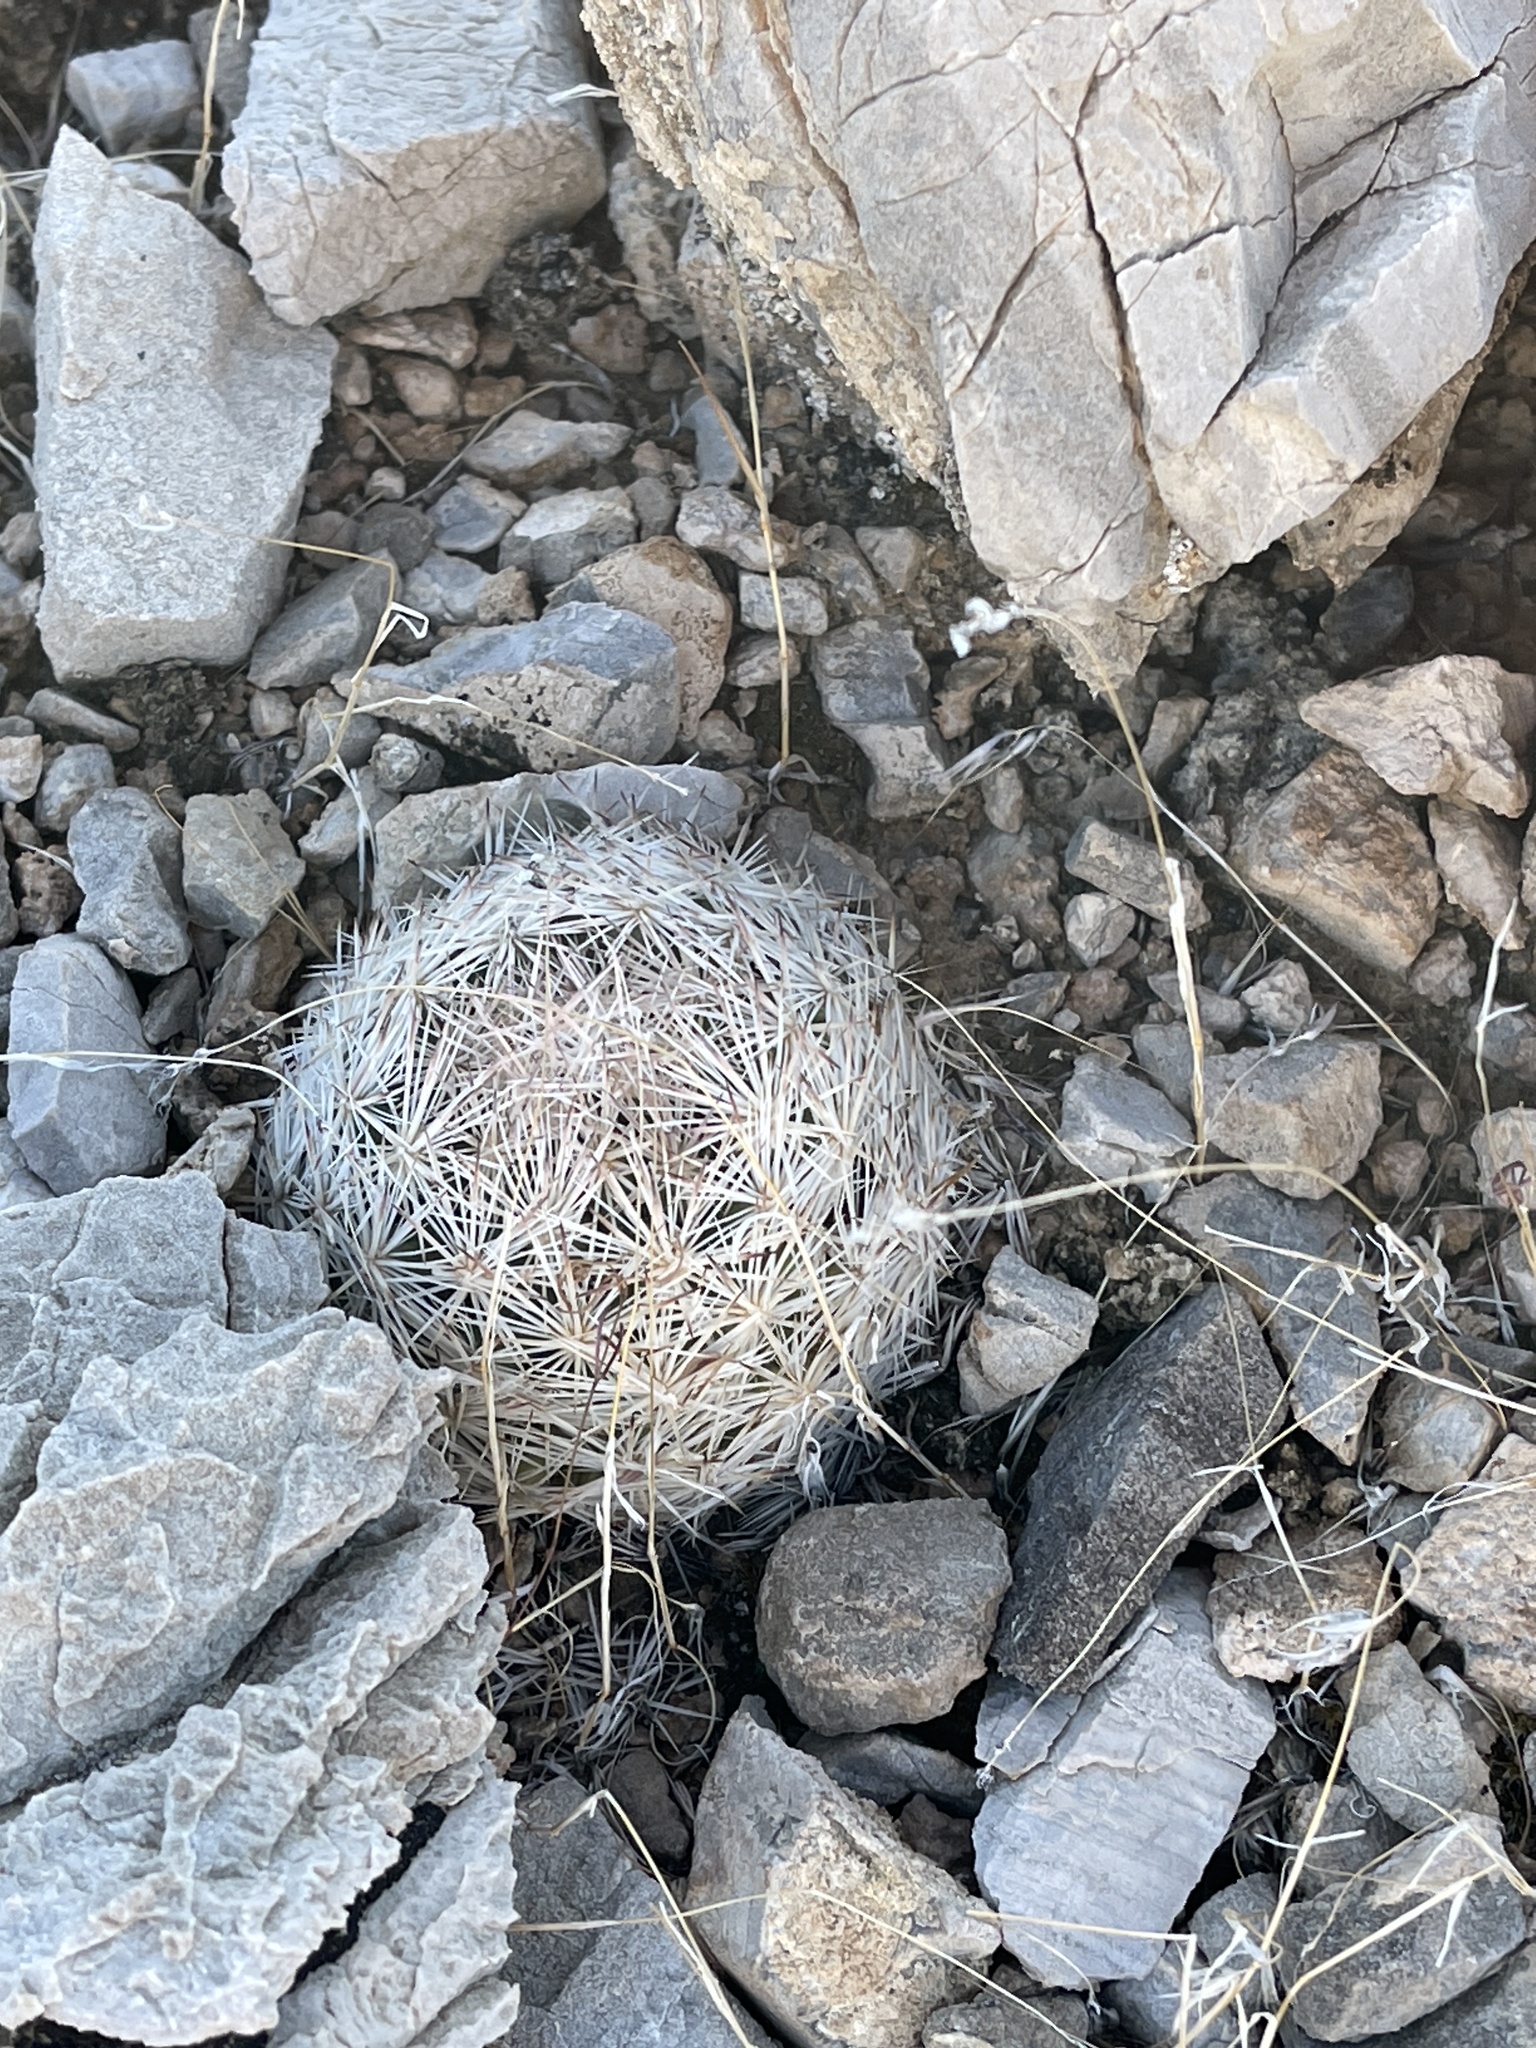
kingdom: Plantae
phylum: Tracheophyta
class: Magnoliopsida
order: Caryophyllales
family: Cactaceae
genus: Pelecyphora
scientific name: Pelecyphora dasyacantha
